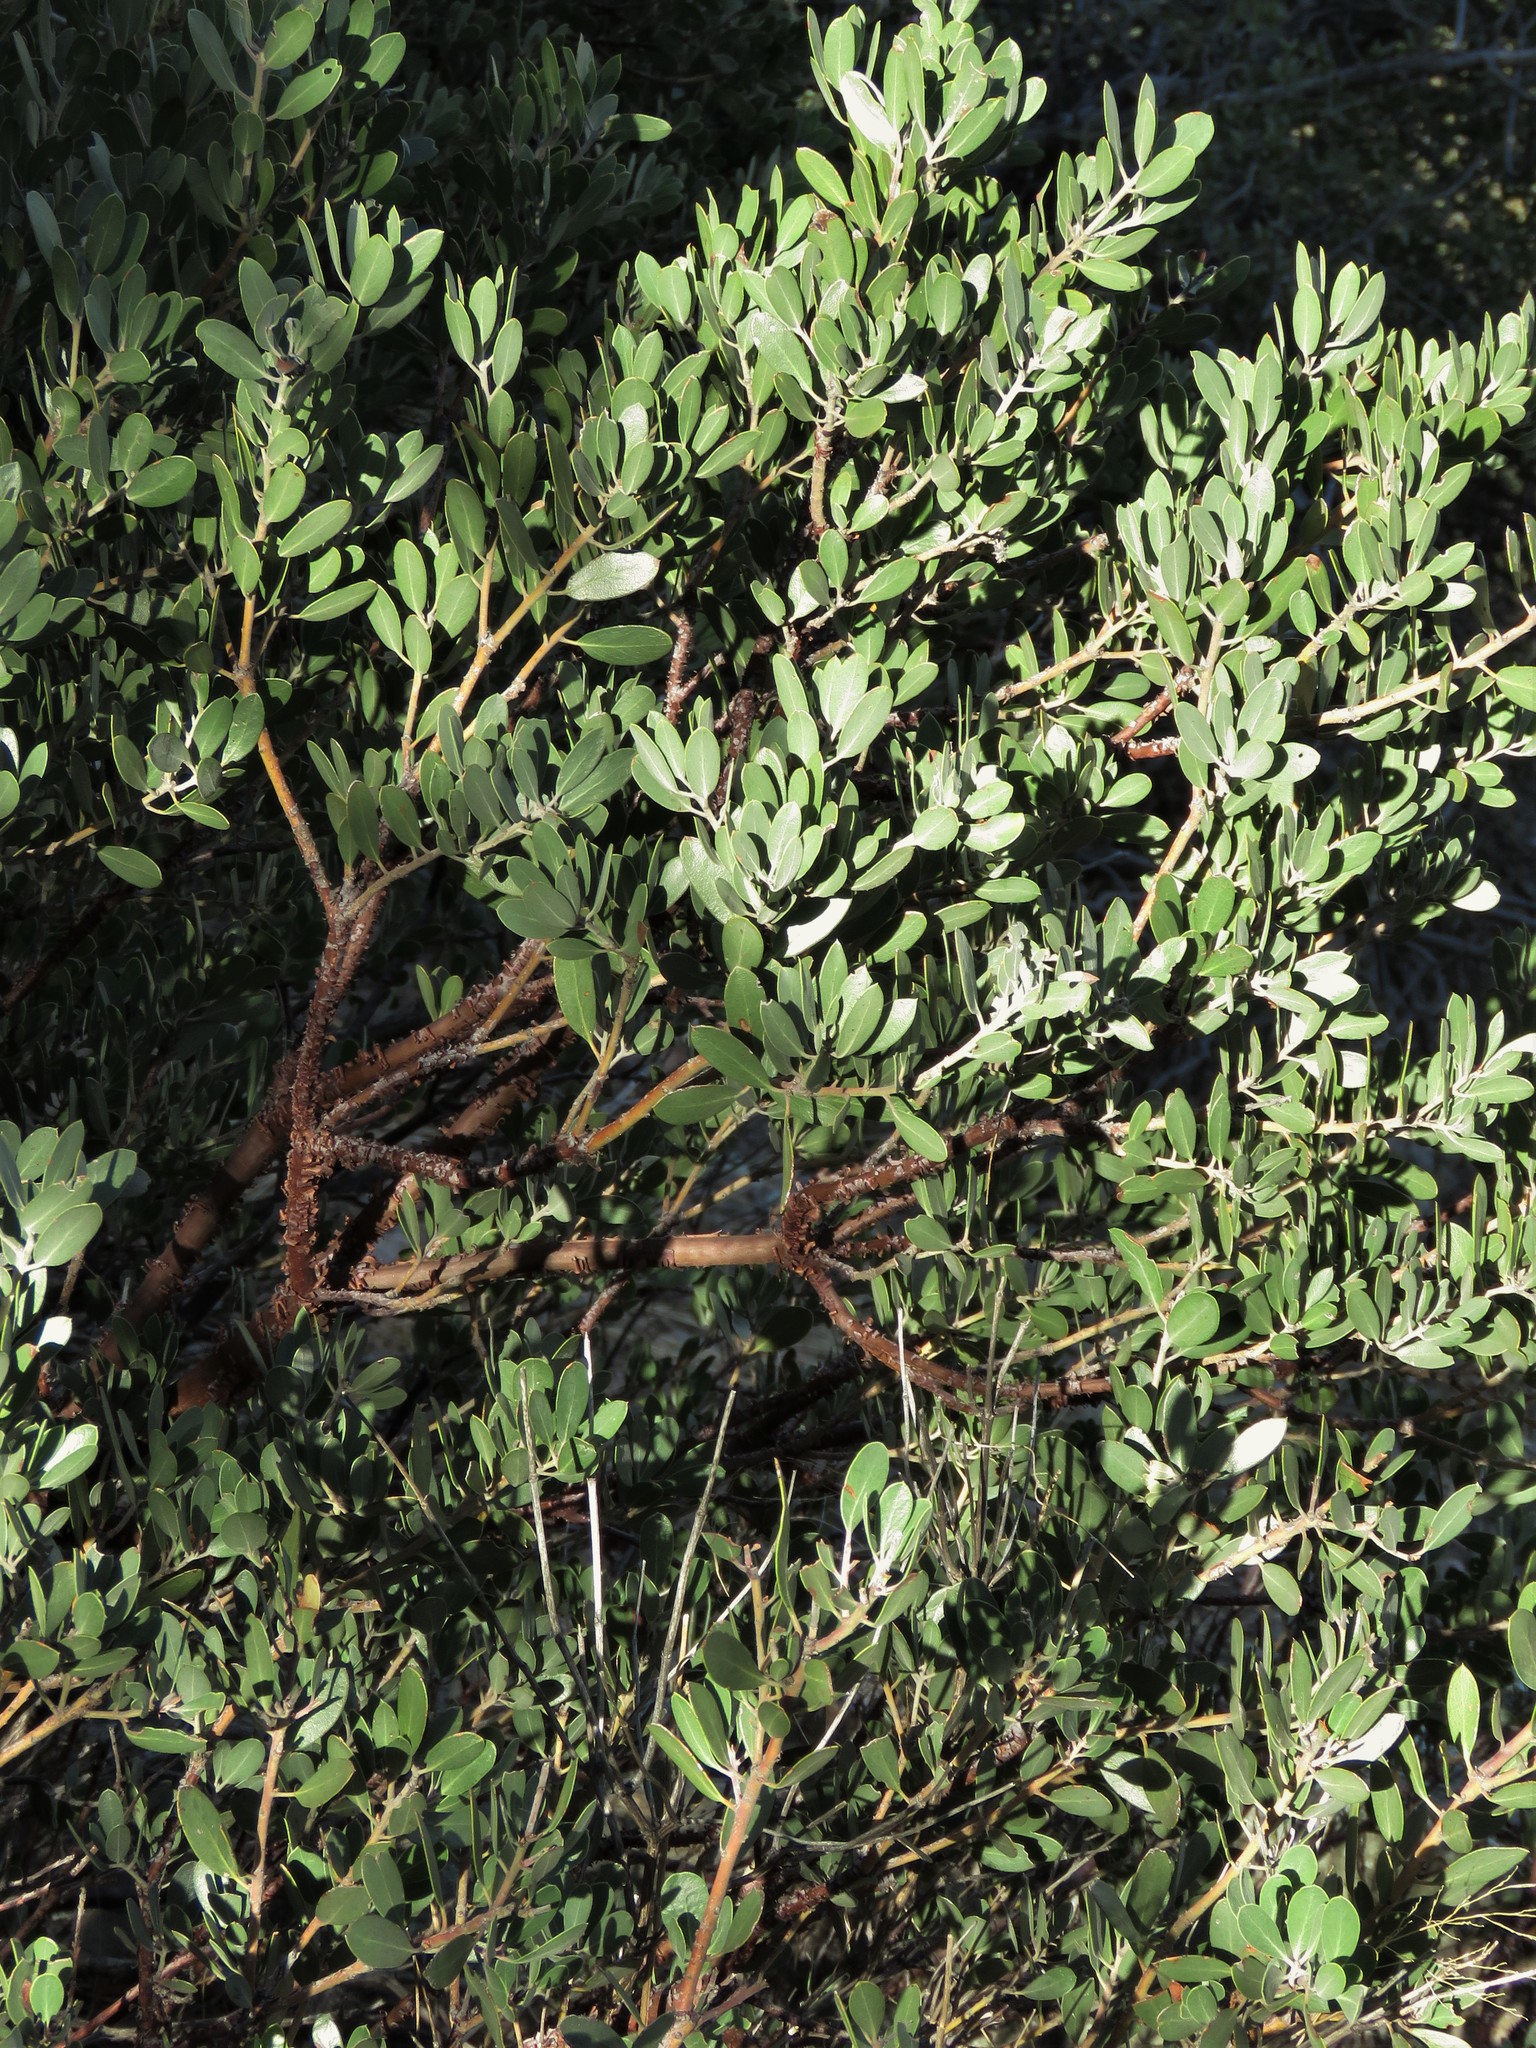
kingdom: Plantae
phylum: Tracheophyta
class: Magnoliopsida
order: Ericales
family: Ericaceae
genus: Arctostaphylos
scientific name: Arctostaphylos pungens
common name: Mexican manzanita
